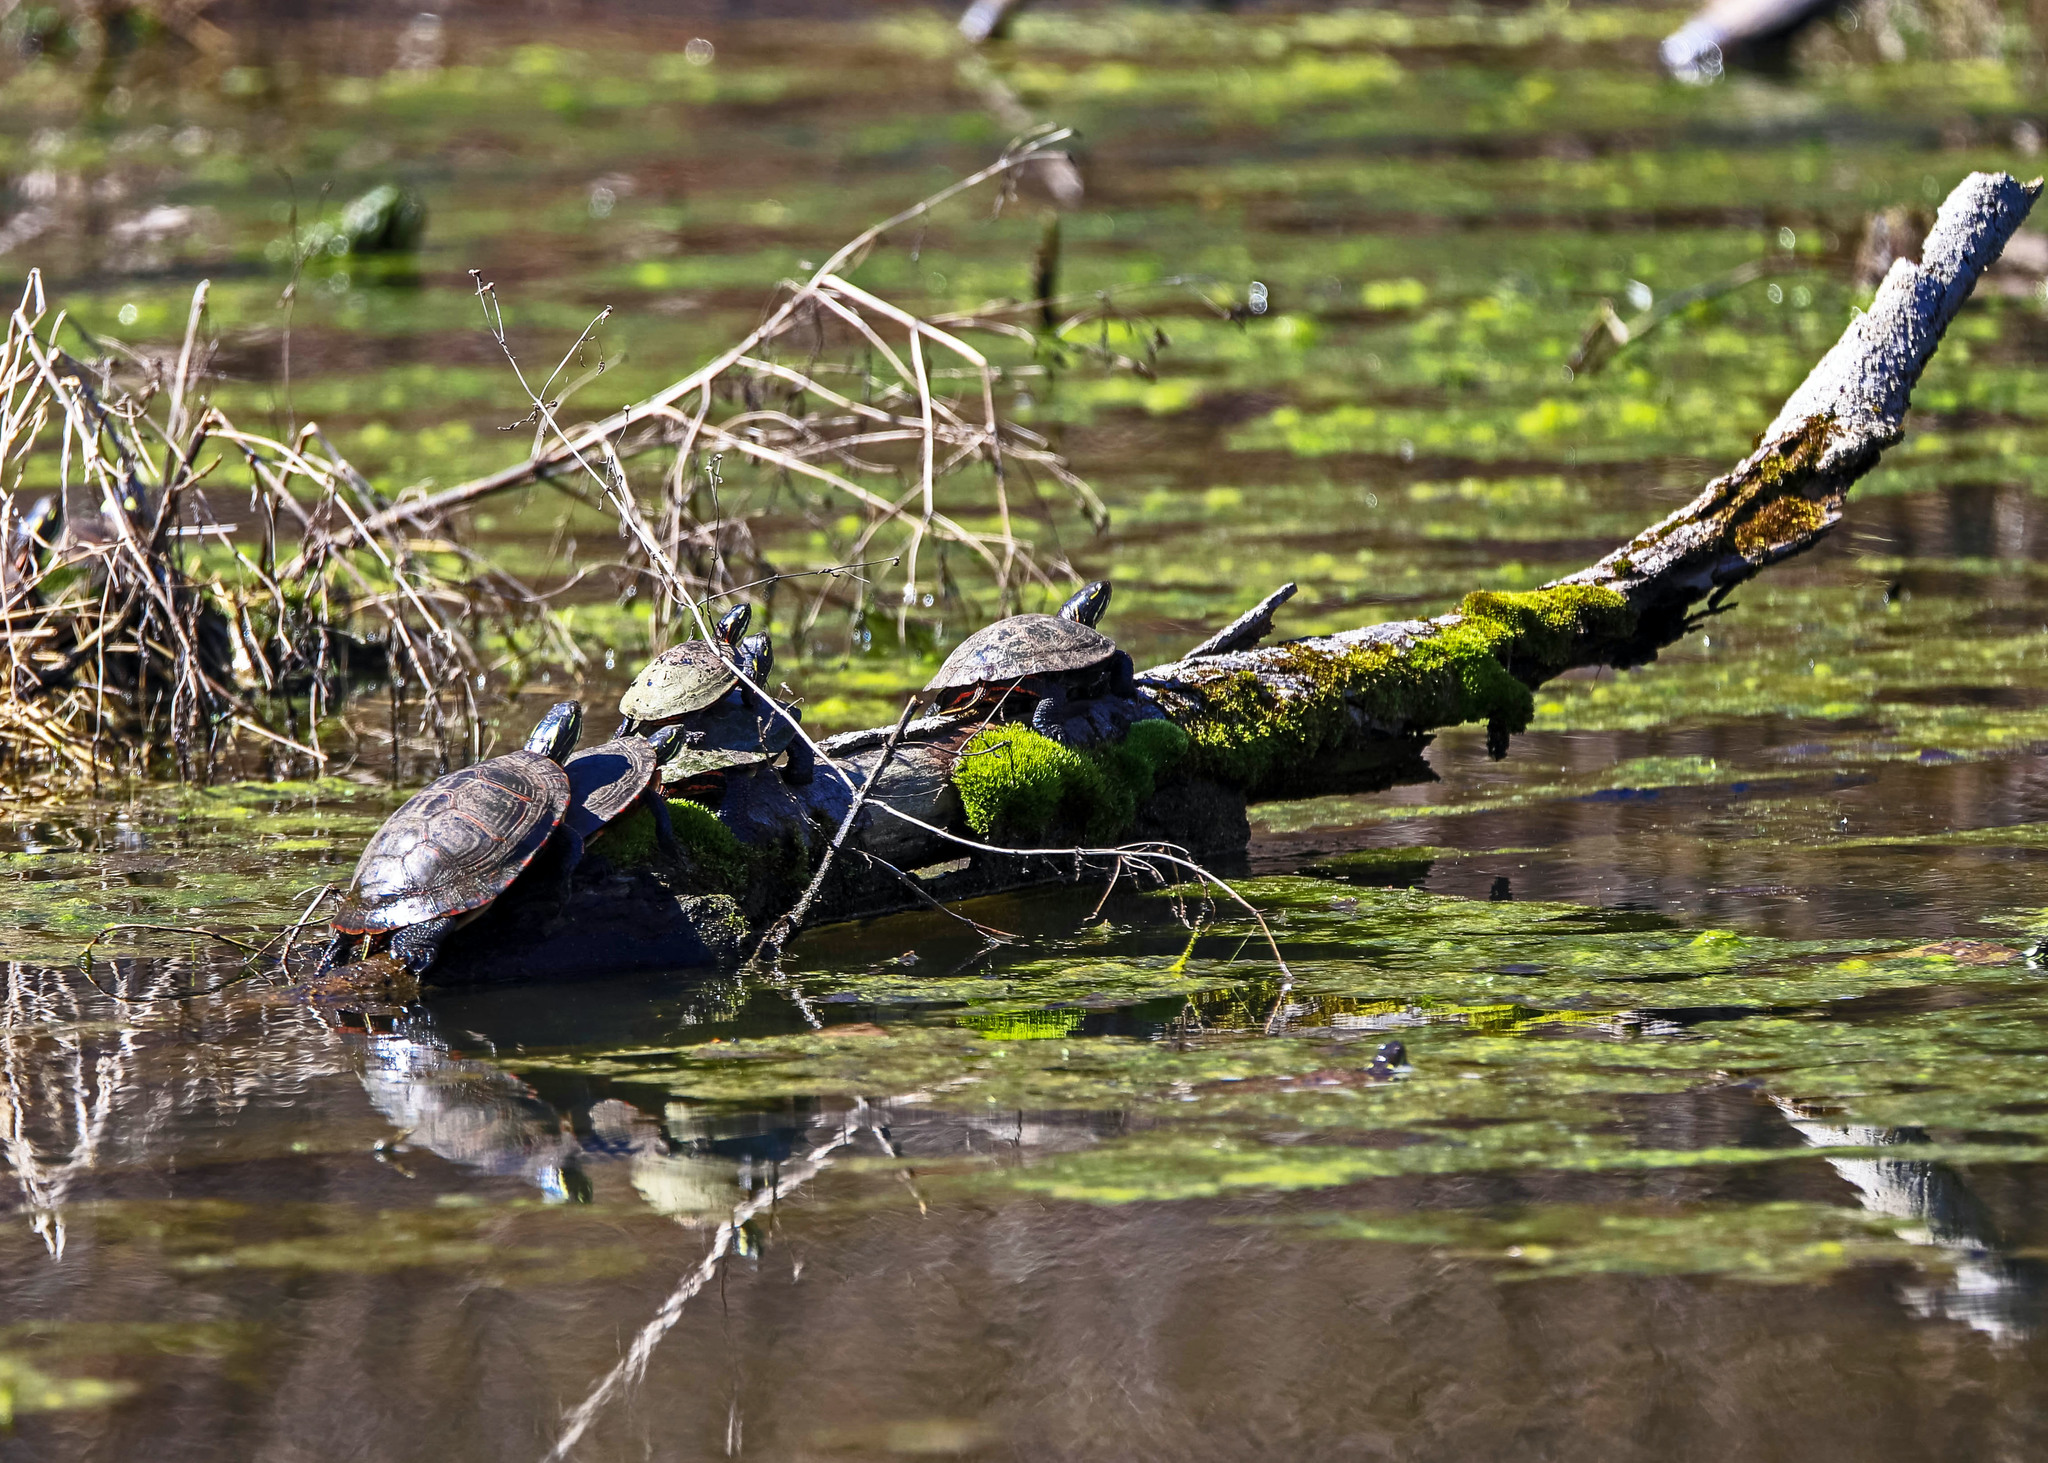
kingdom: Animalia
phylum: Chordata
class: Testudines
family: Emydidae
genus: Chrysemys
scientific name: Chrysemys picta
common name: Painted turtle
